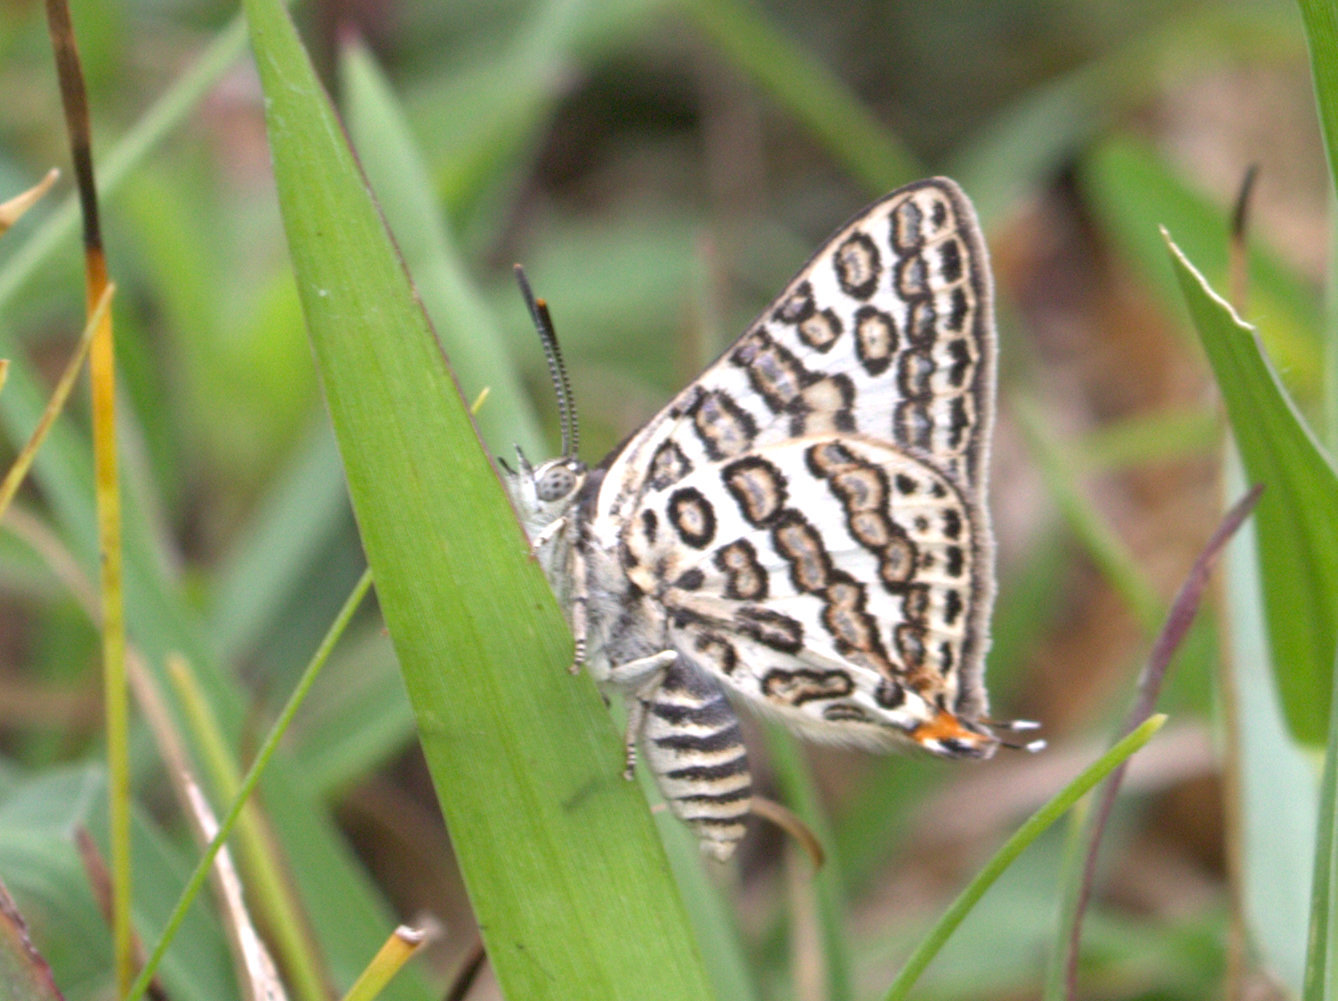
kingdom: Animalia
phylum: Arthropoda
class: Insecta
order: Lepidoptera
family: Lycaenidae
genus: Aphnaeus
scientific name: Aphnaeus lilacinus
